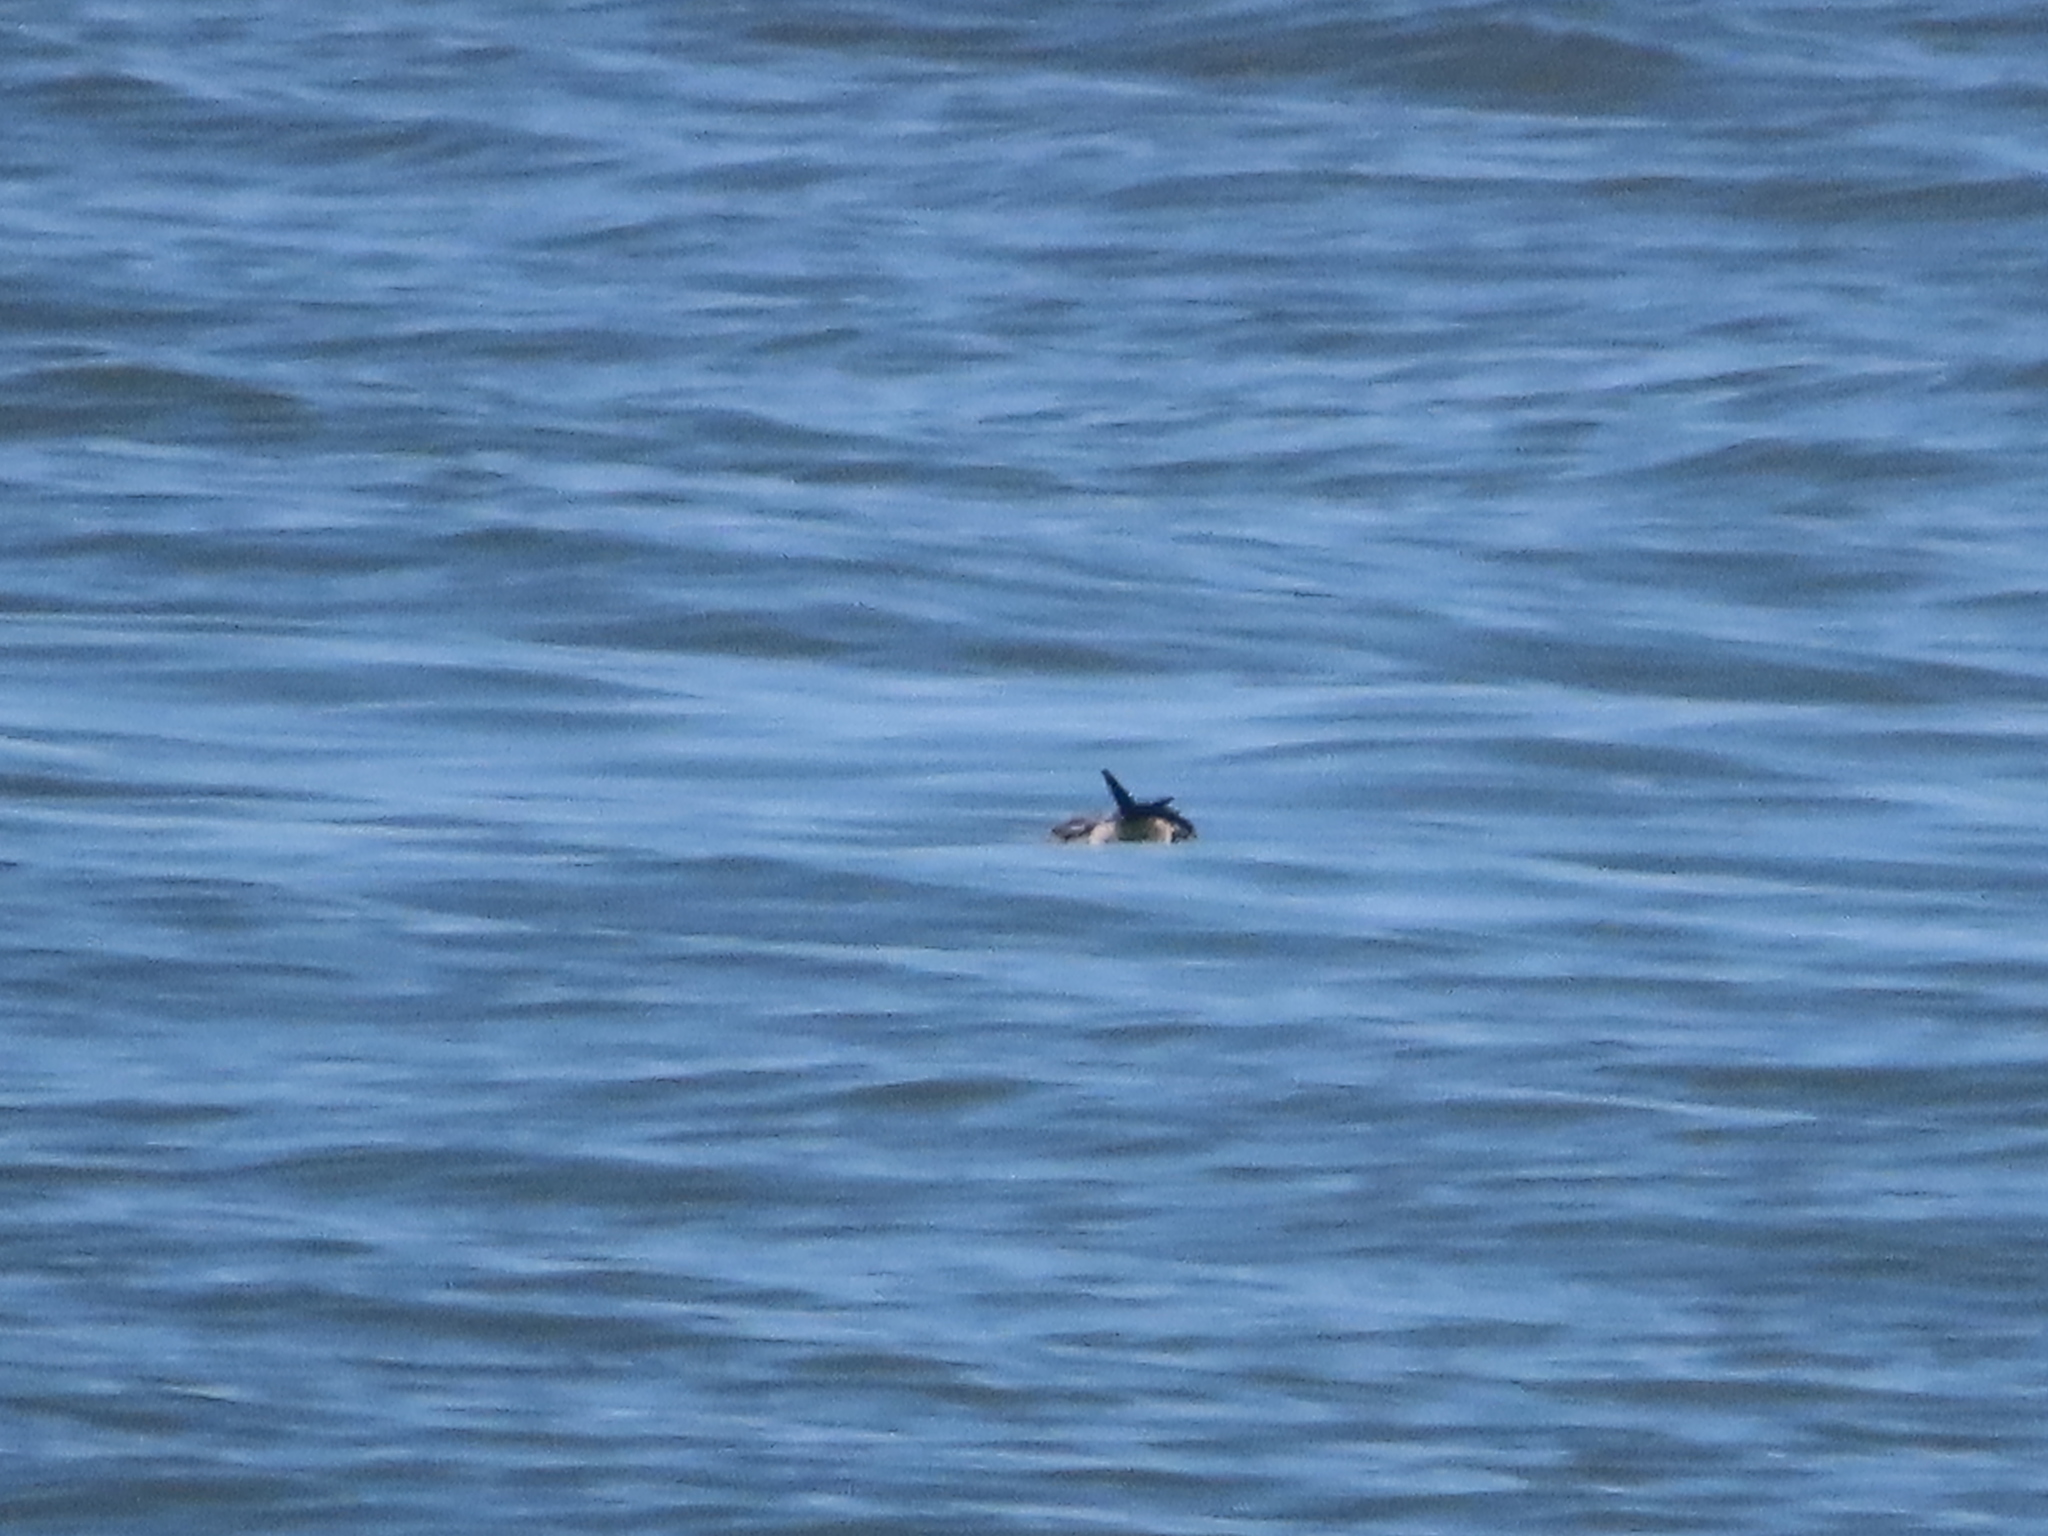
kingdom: Animalia
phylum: Chordata
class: Aves
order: Charadriiformes
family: Laridae
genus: Leucophaeus
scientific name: Leucophaeus atricilla
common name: Laughing gull
